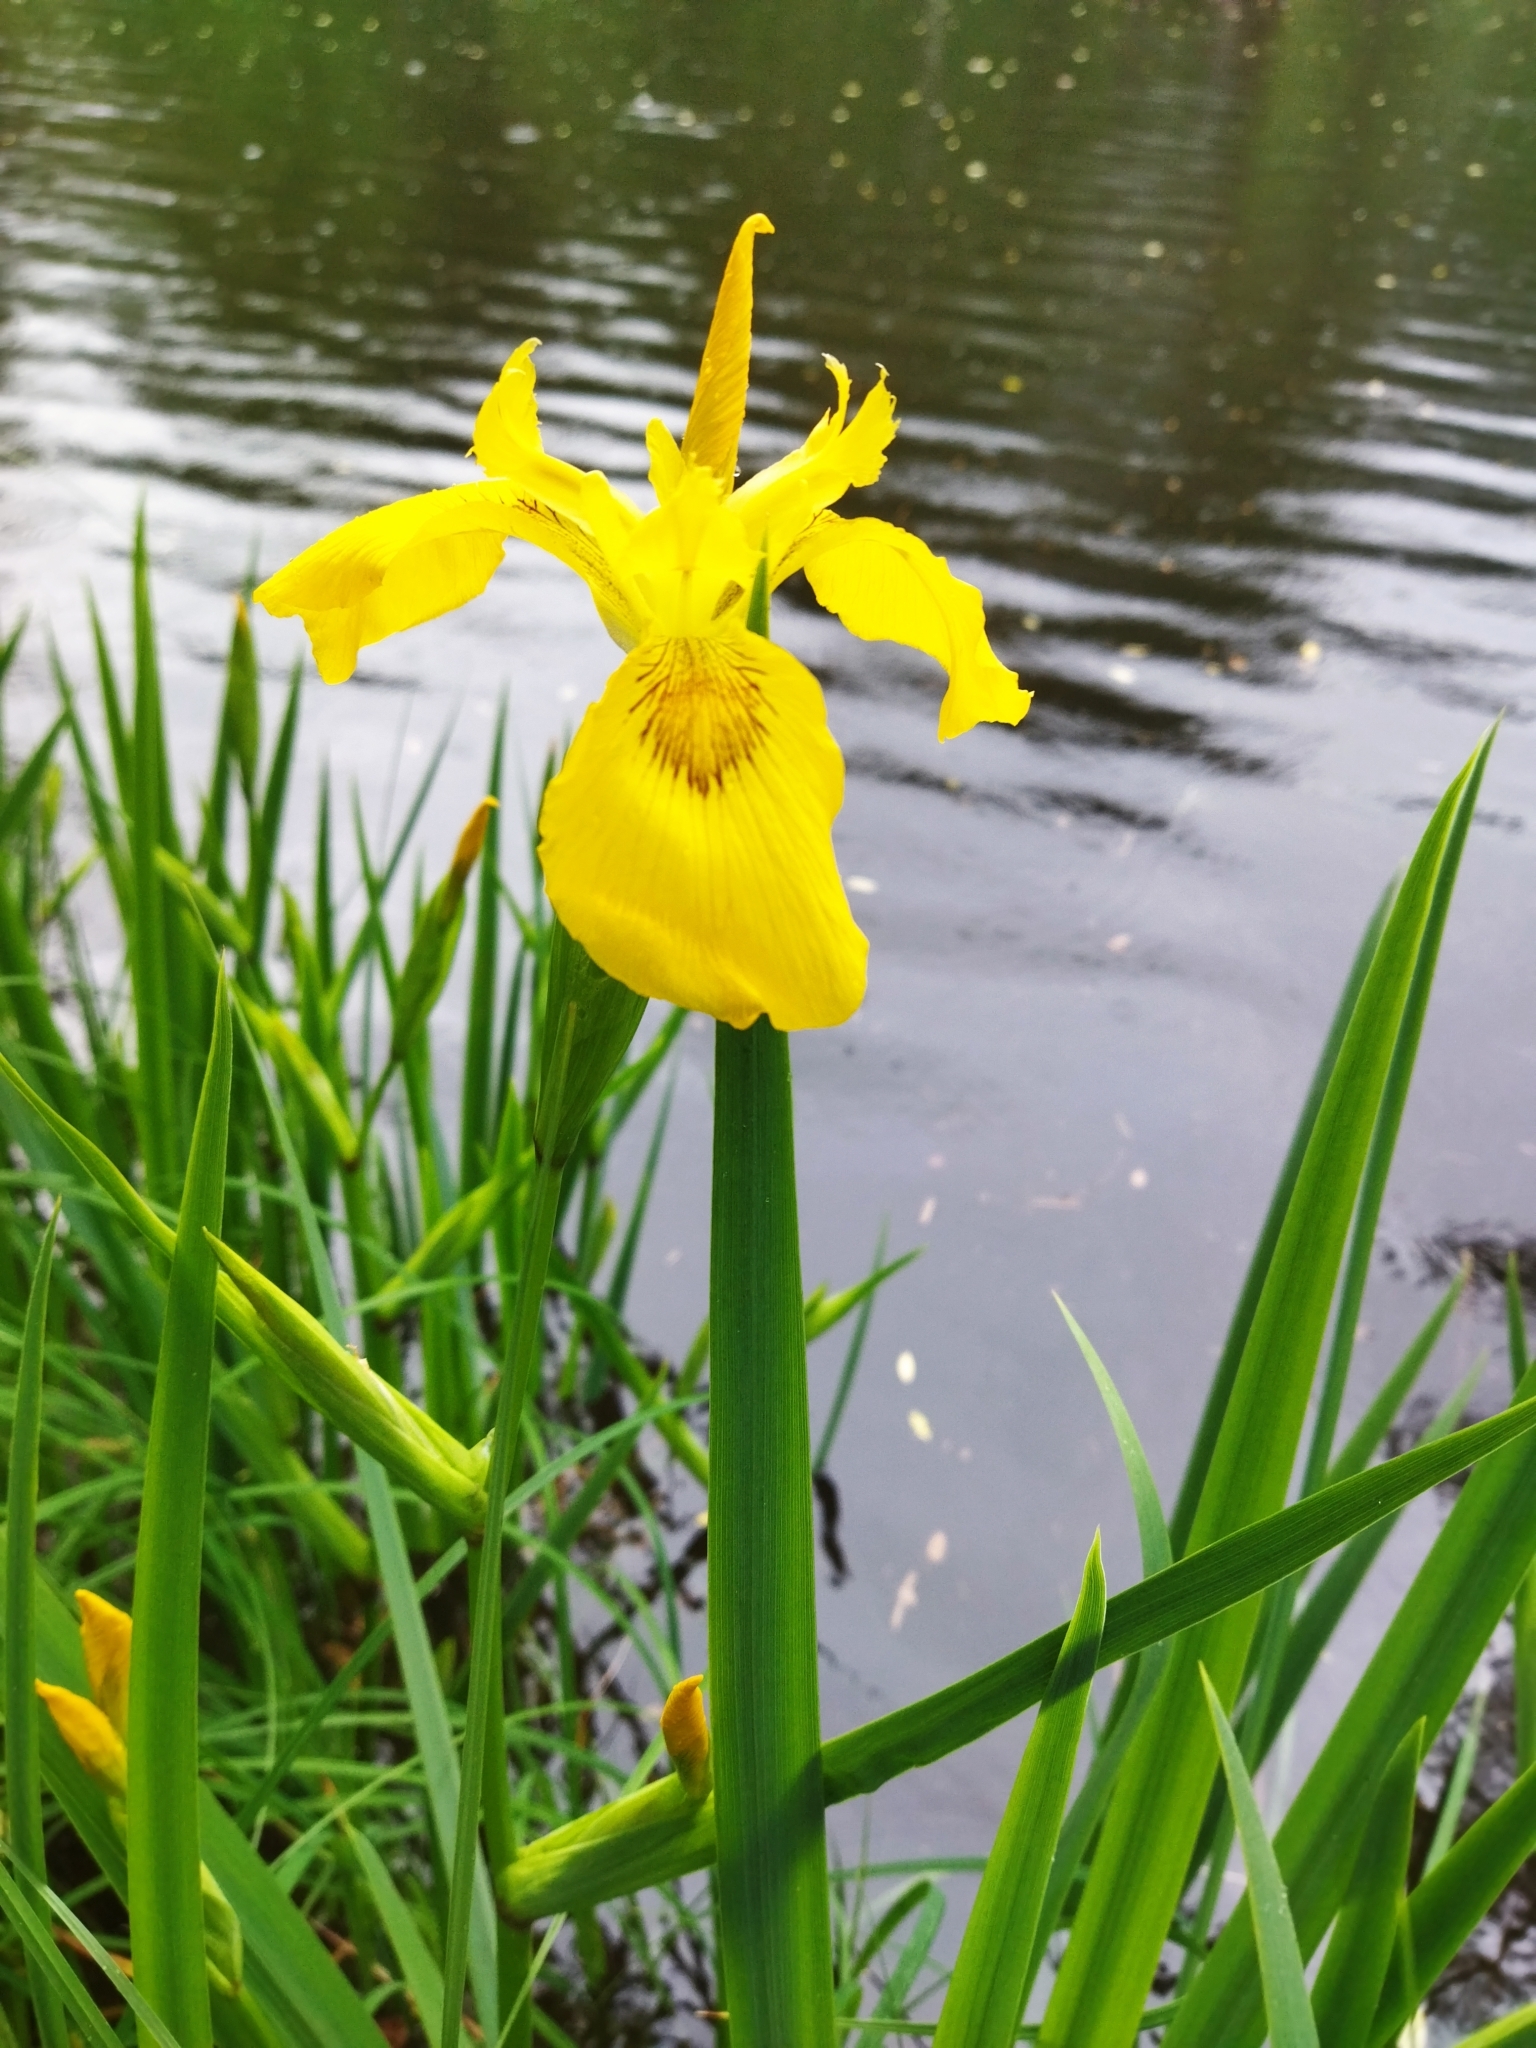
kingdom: Plantae
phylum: Tracheophyta
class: Liliopsida
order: Asparagales
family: Iridaceae
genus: Iris
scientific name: Iris pseudacorus
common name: Yellow flag
